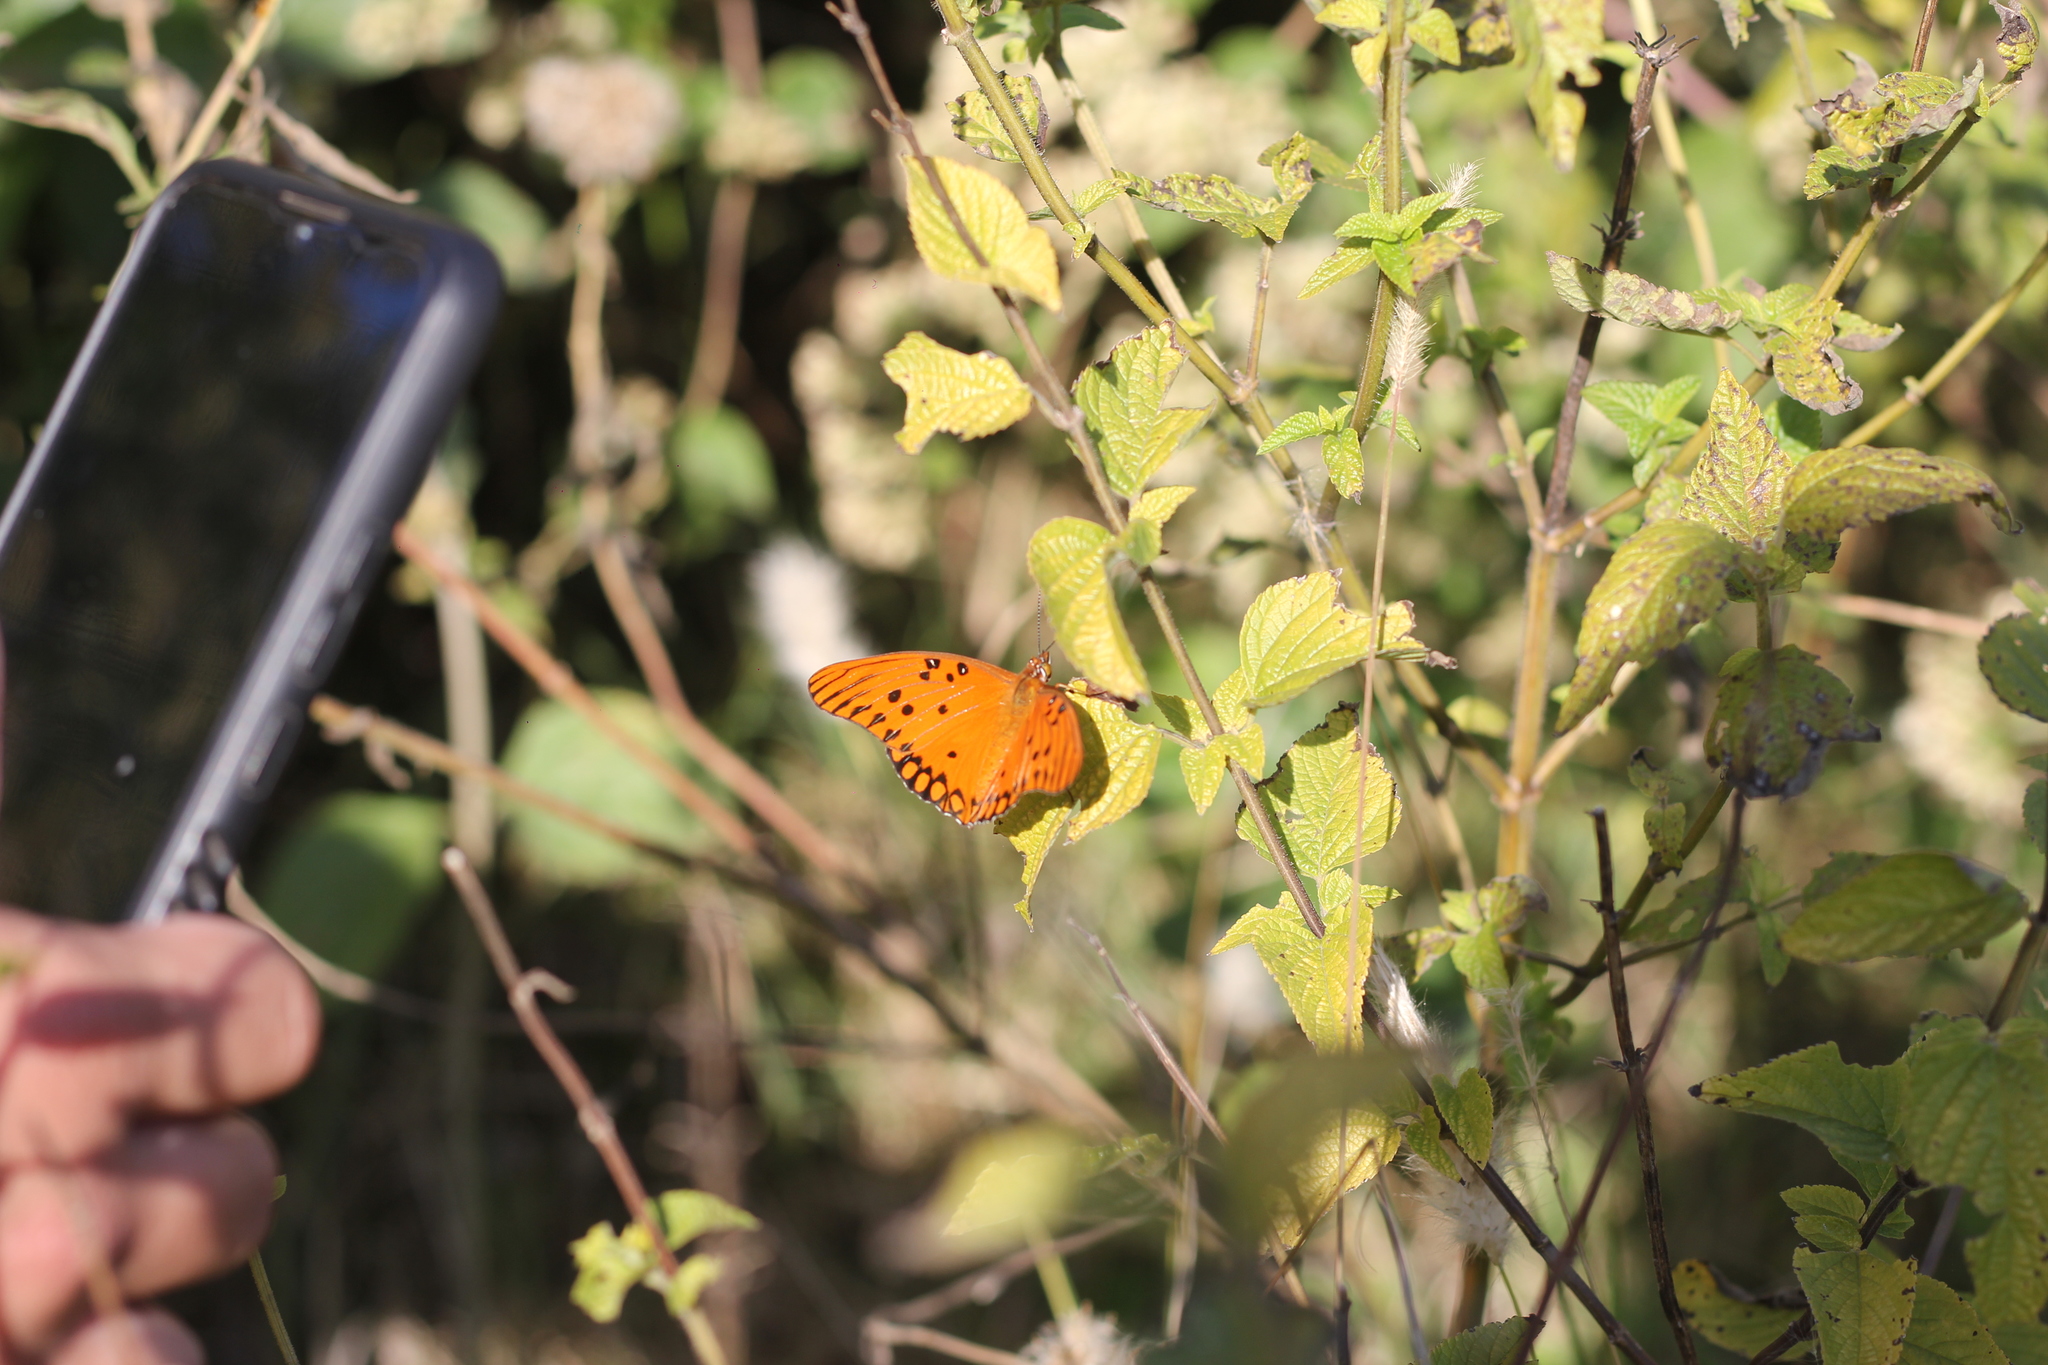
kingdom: Animalia
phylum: Arthropoda
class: Insecta
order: Lepidoptera
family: Nymphalidae
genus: Dione
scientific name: Dione vanillae
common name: Gulf fritillary
